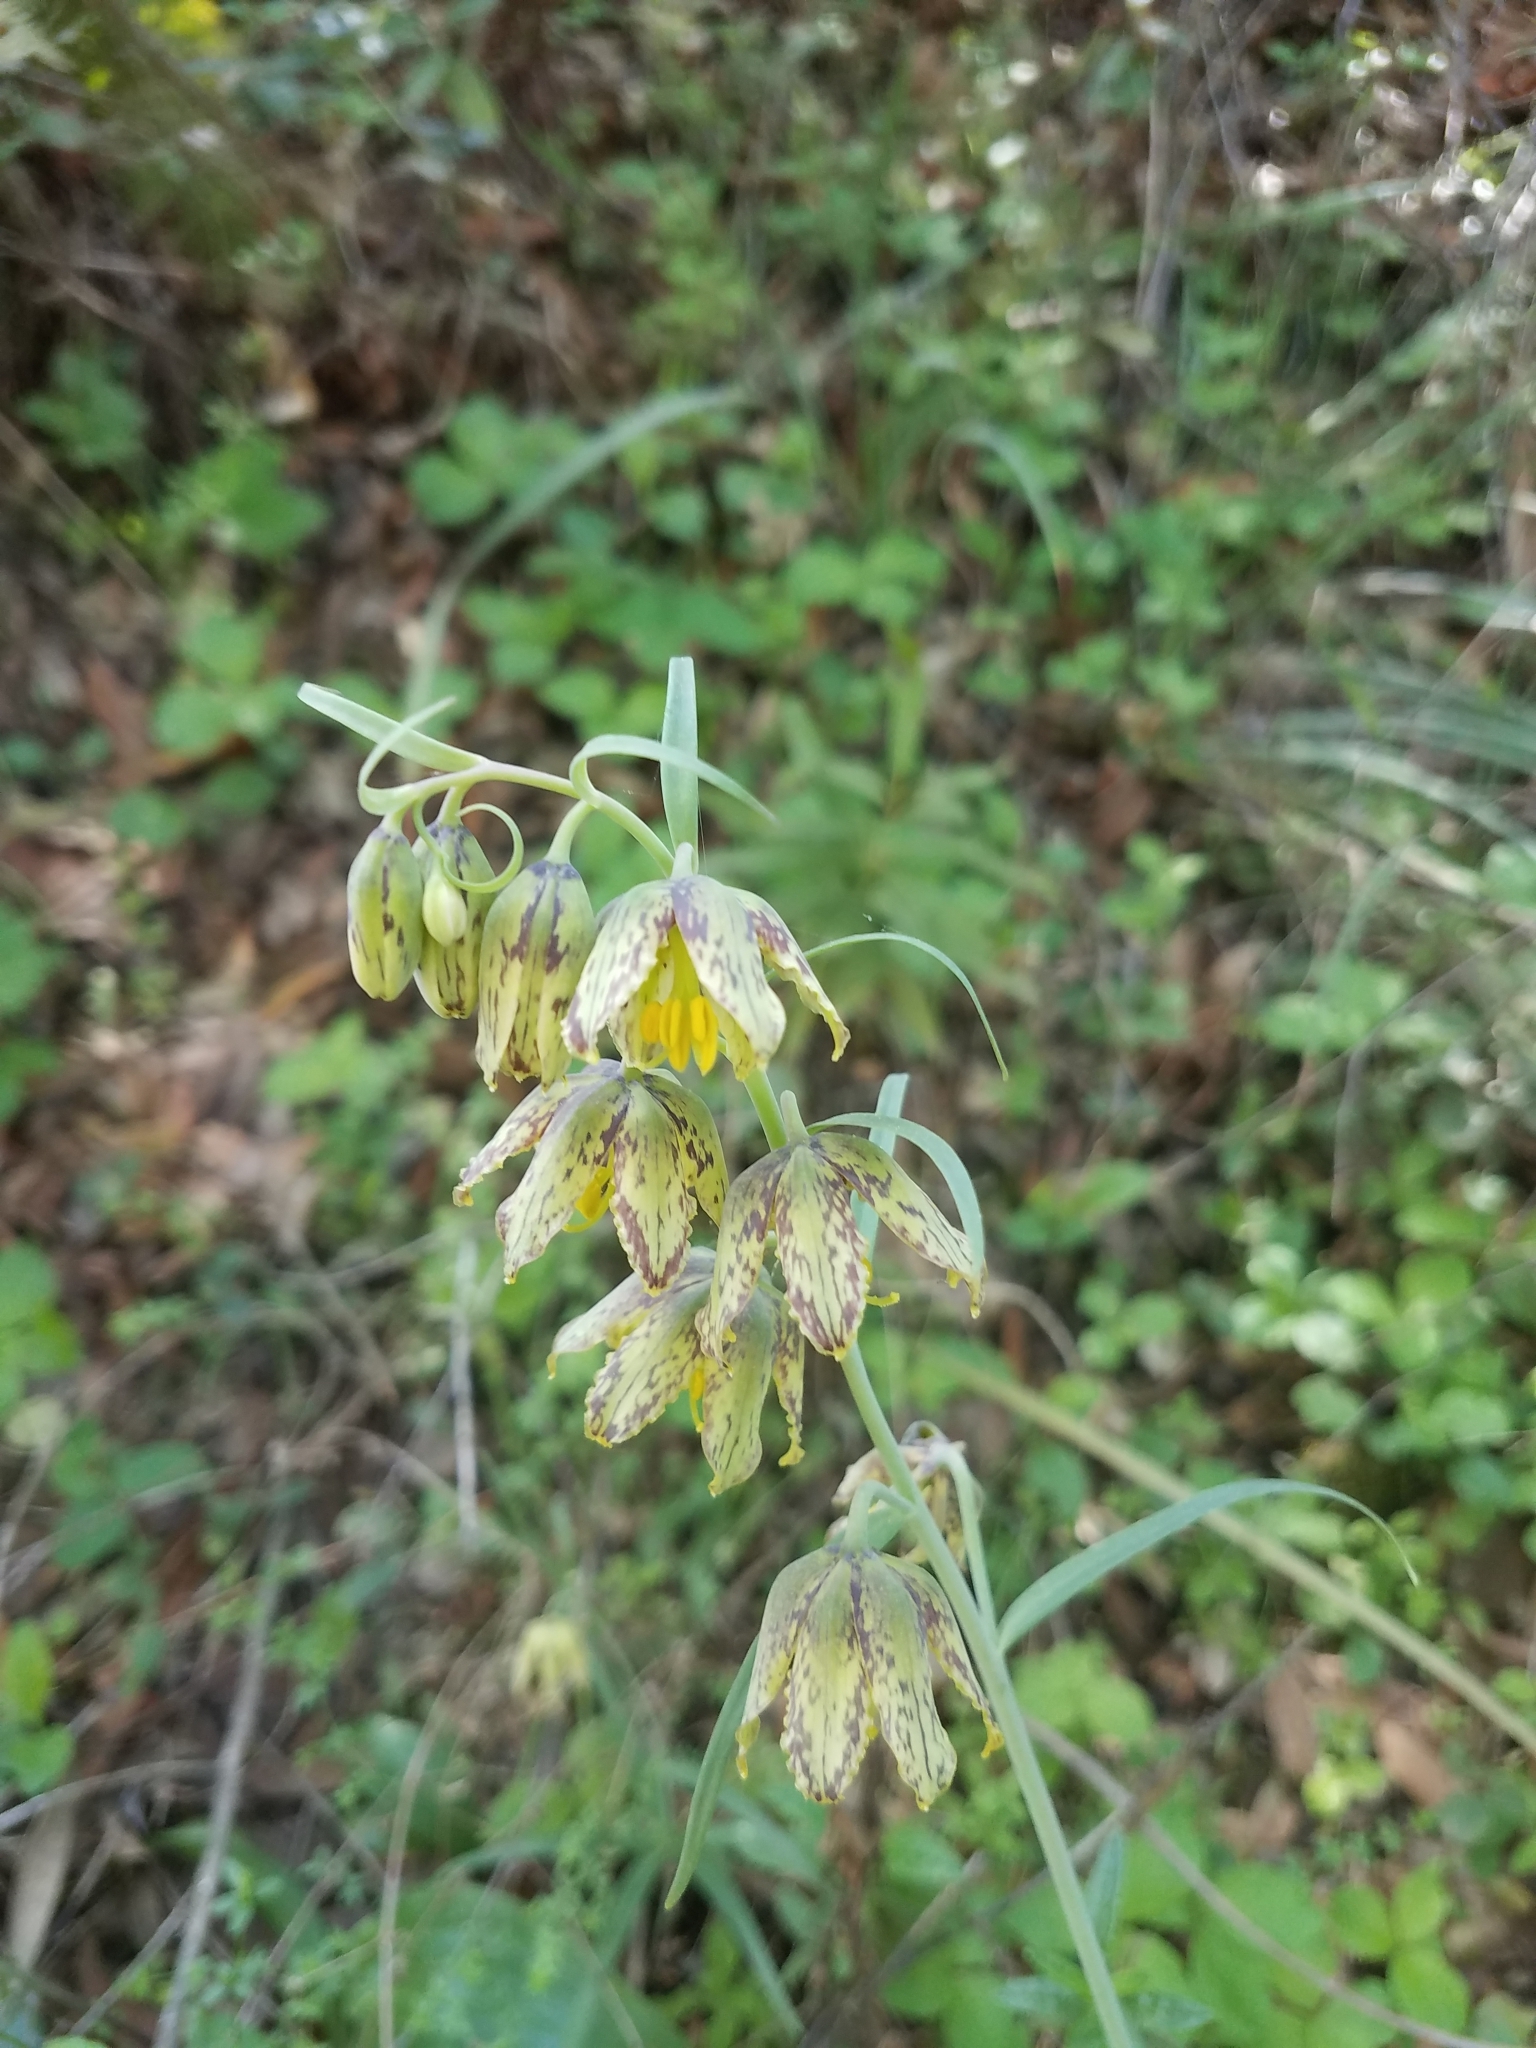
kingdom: Plantae
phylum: Tracheophyta
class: Liliopsida
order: Liliales
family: Liliaceae
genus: Fritillaria
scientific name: Fritillaria affinis
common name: Ojai fritillary
